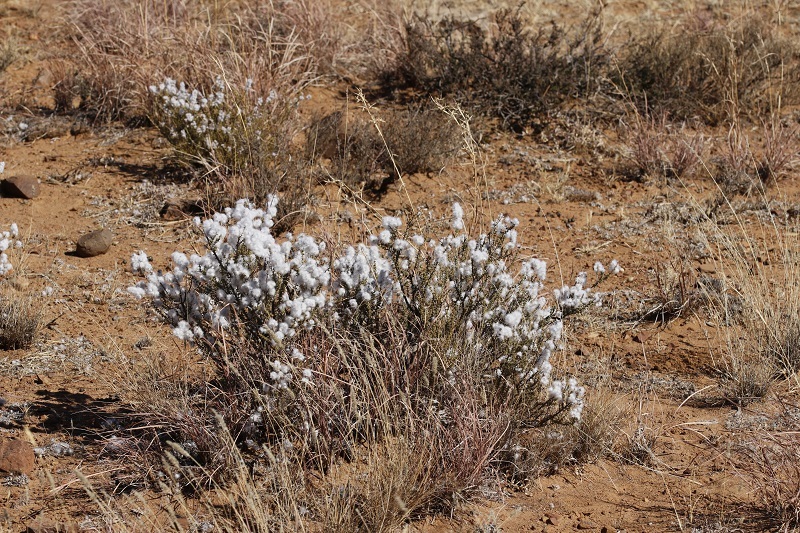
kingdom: Plantae
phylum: Tracheophyta
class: Magnoliopsida
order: Asterales
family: Asteraceae
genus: Eriocephalus
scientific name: Eriocephalus ericoides
